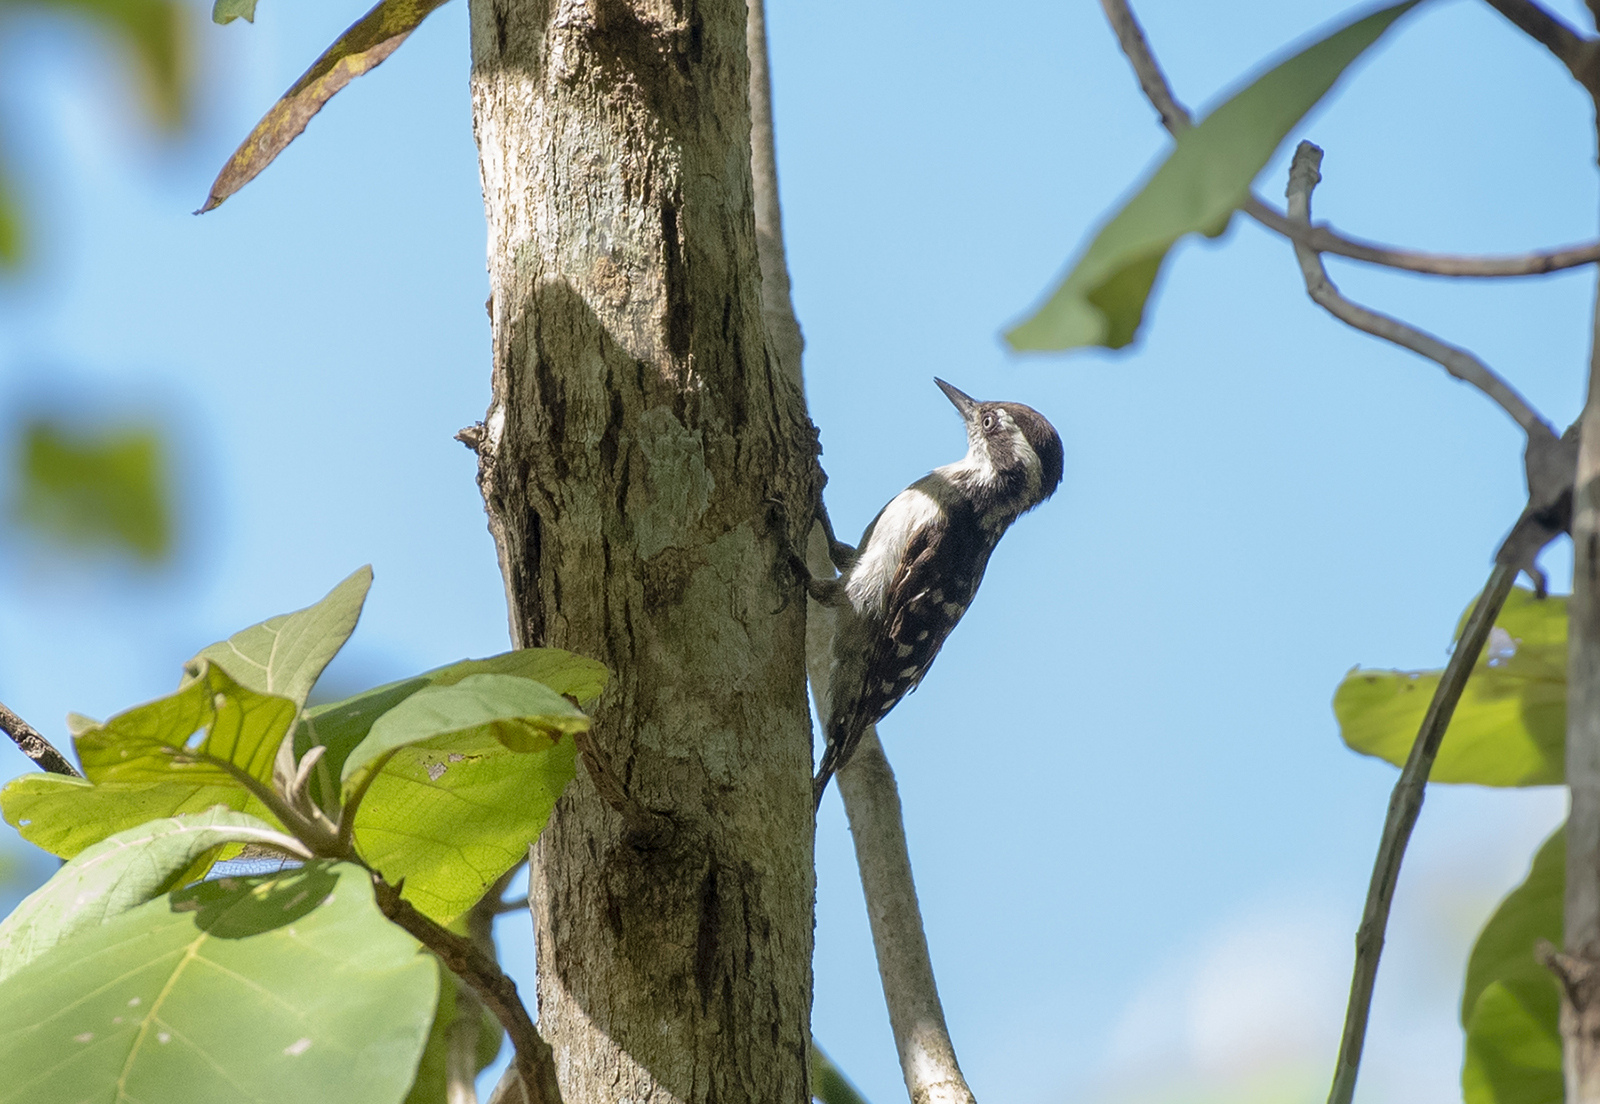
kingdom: Animalia
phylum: Chordata
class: Aves
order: Piciformes
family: Picidae
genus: Yungipicus
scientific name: Yungipicus nanus
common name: Brown-capped pygmy woodpecker
